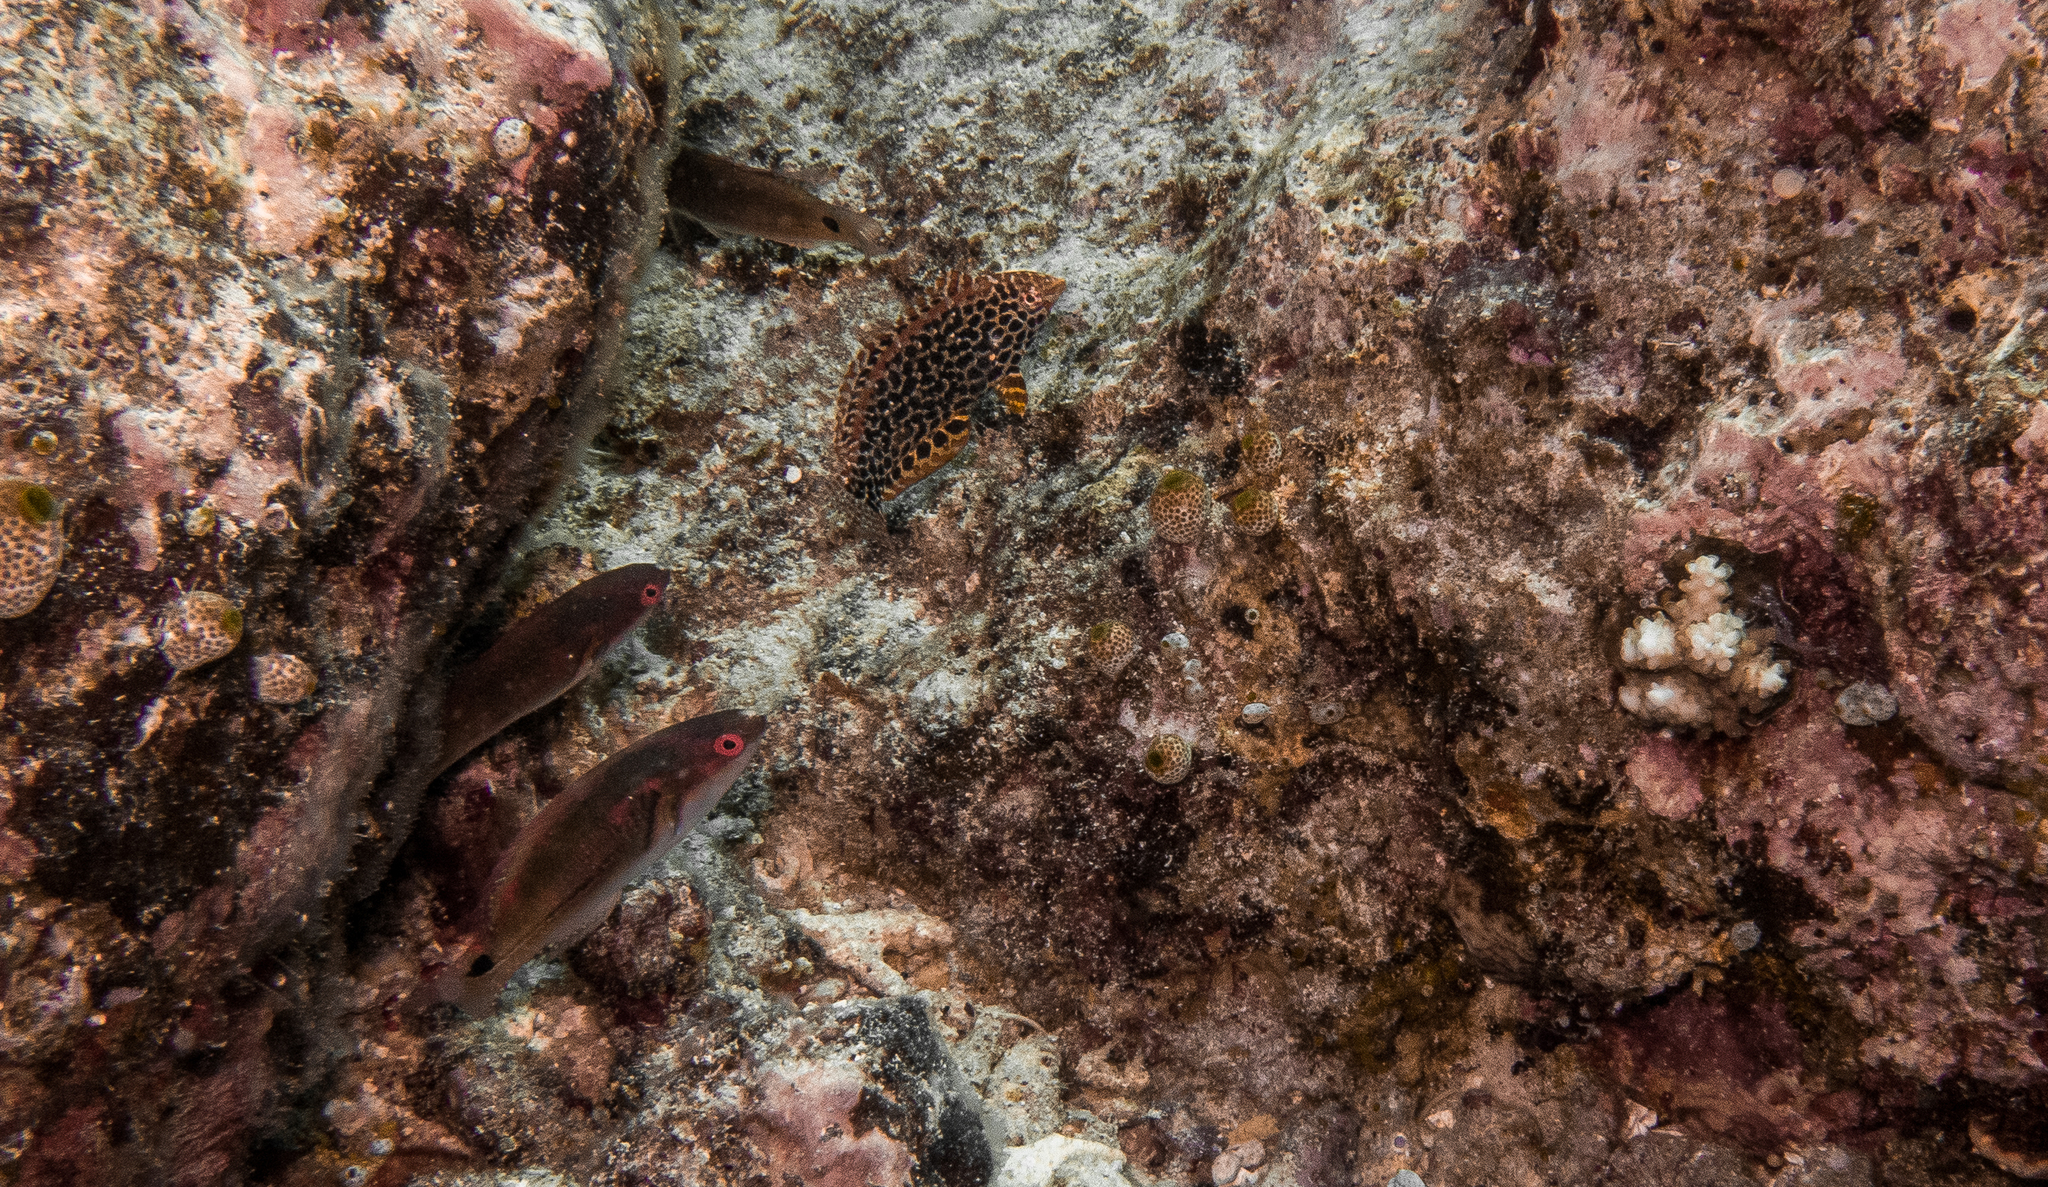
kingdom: Animalia
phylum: Chordata
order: Perciformes
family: Labridae
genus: Macropharyngodon
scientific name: Macropharyngodon meleagris
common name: Leopard wrasse
